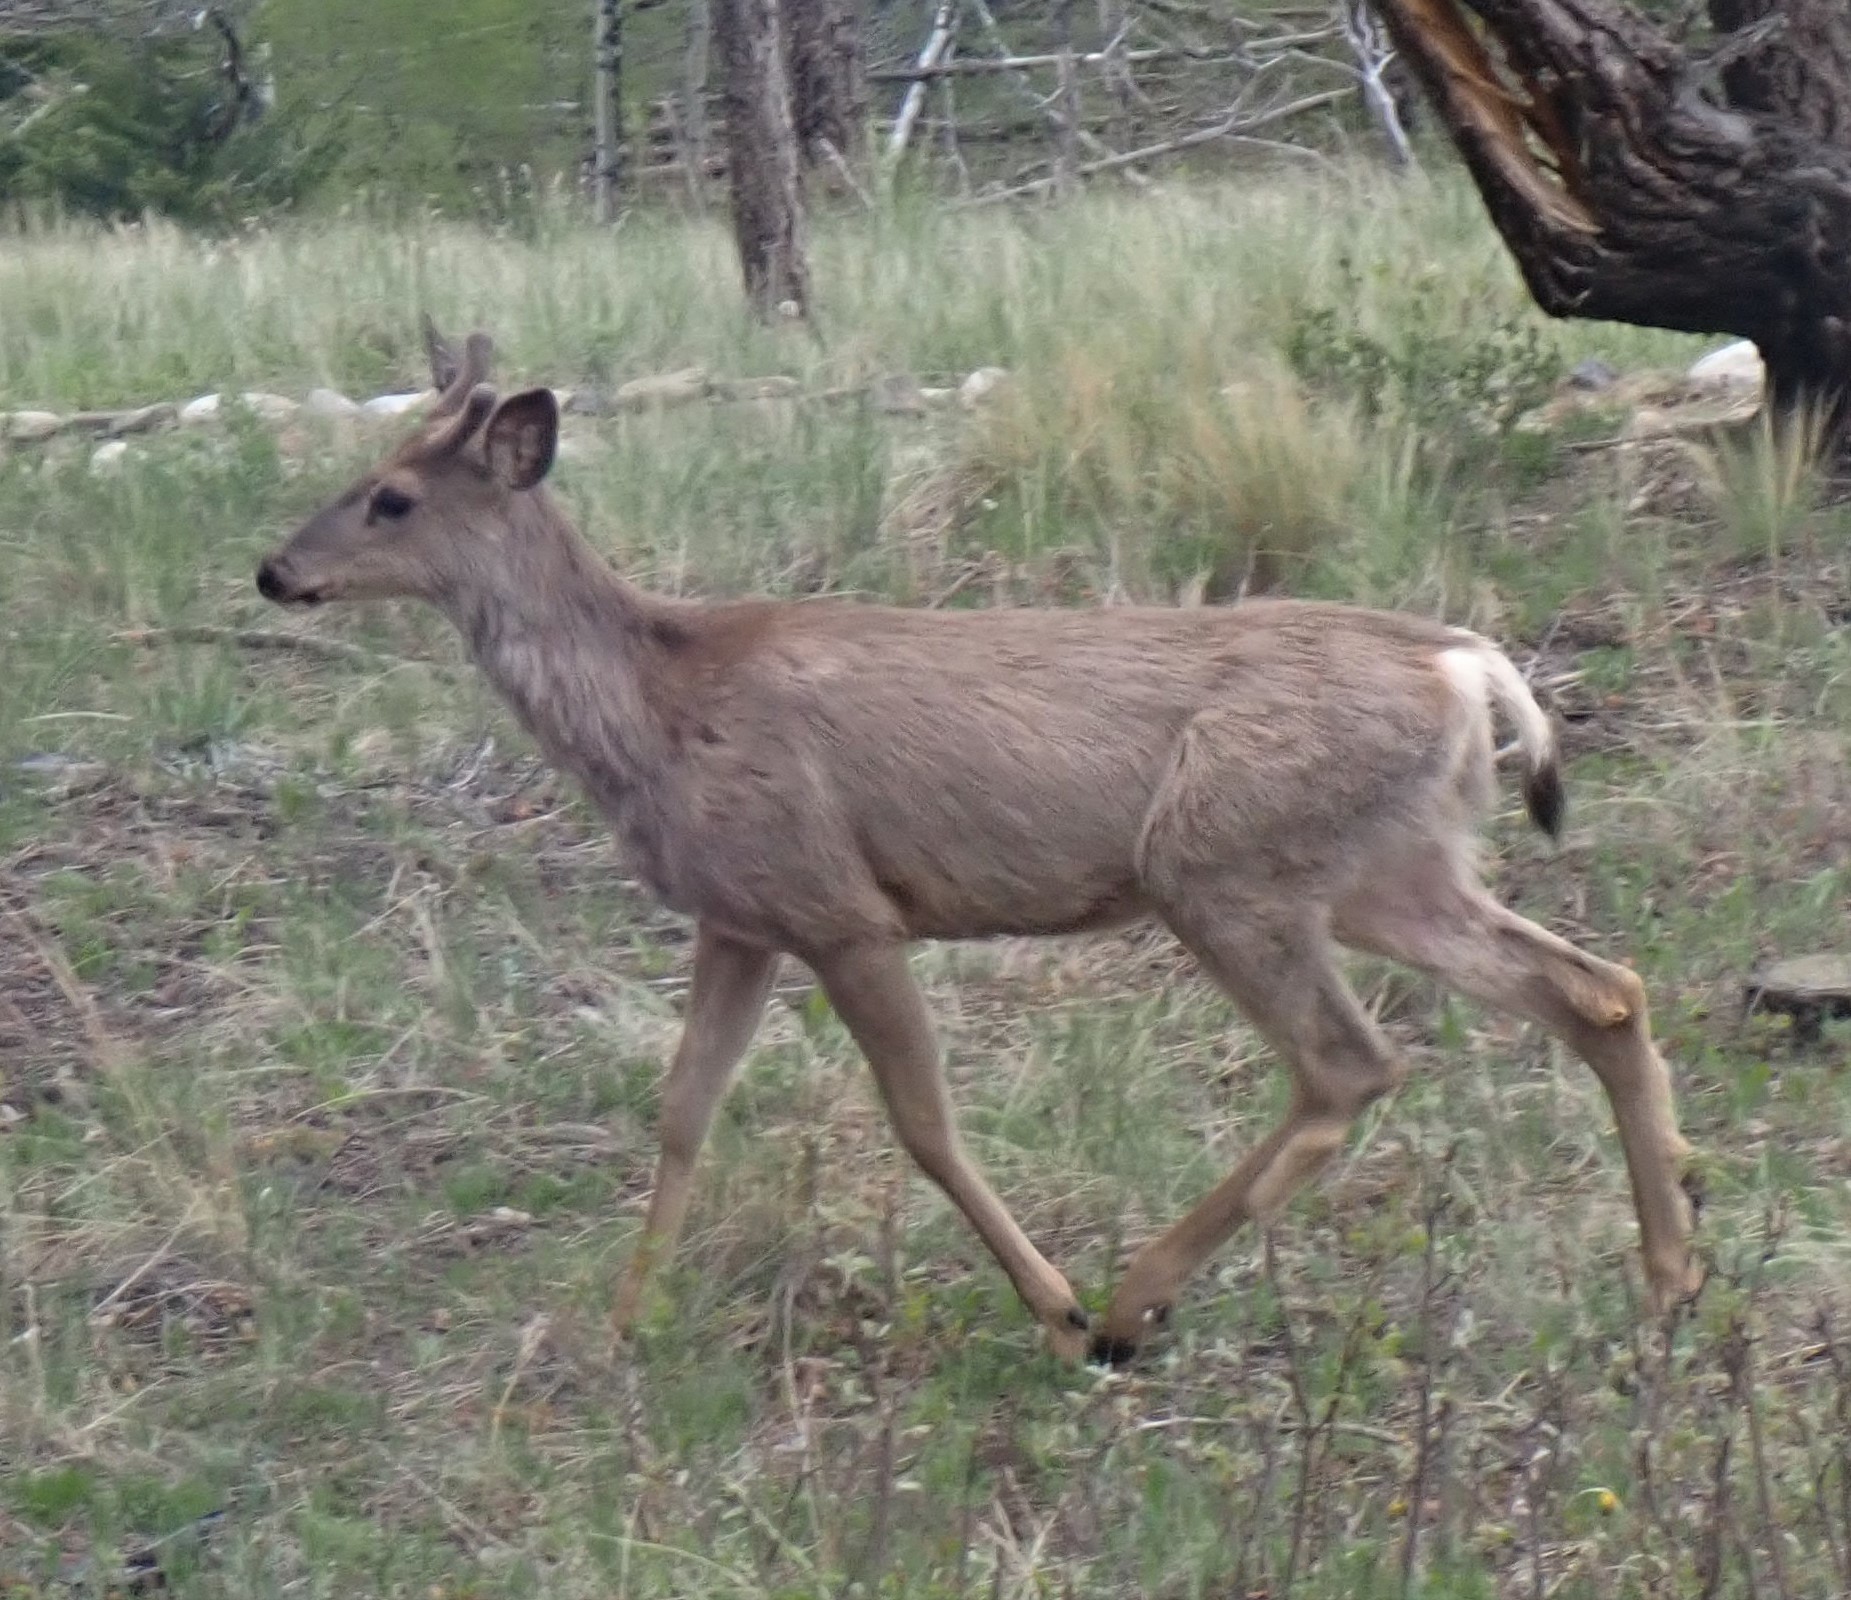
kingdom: Animalia
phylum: Chordata
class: Mammalia
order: Artiodactyla
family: Cervidae
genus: Odocoileus
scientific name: Odocoileus hemionus
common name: Mule deer
